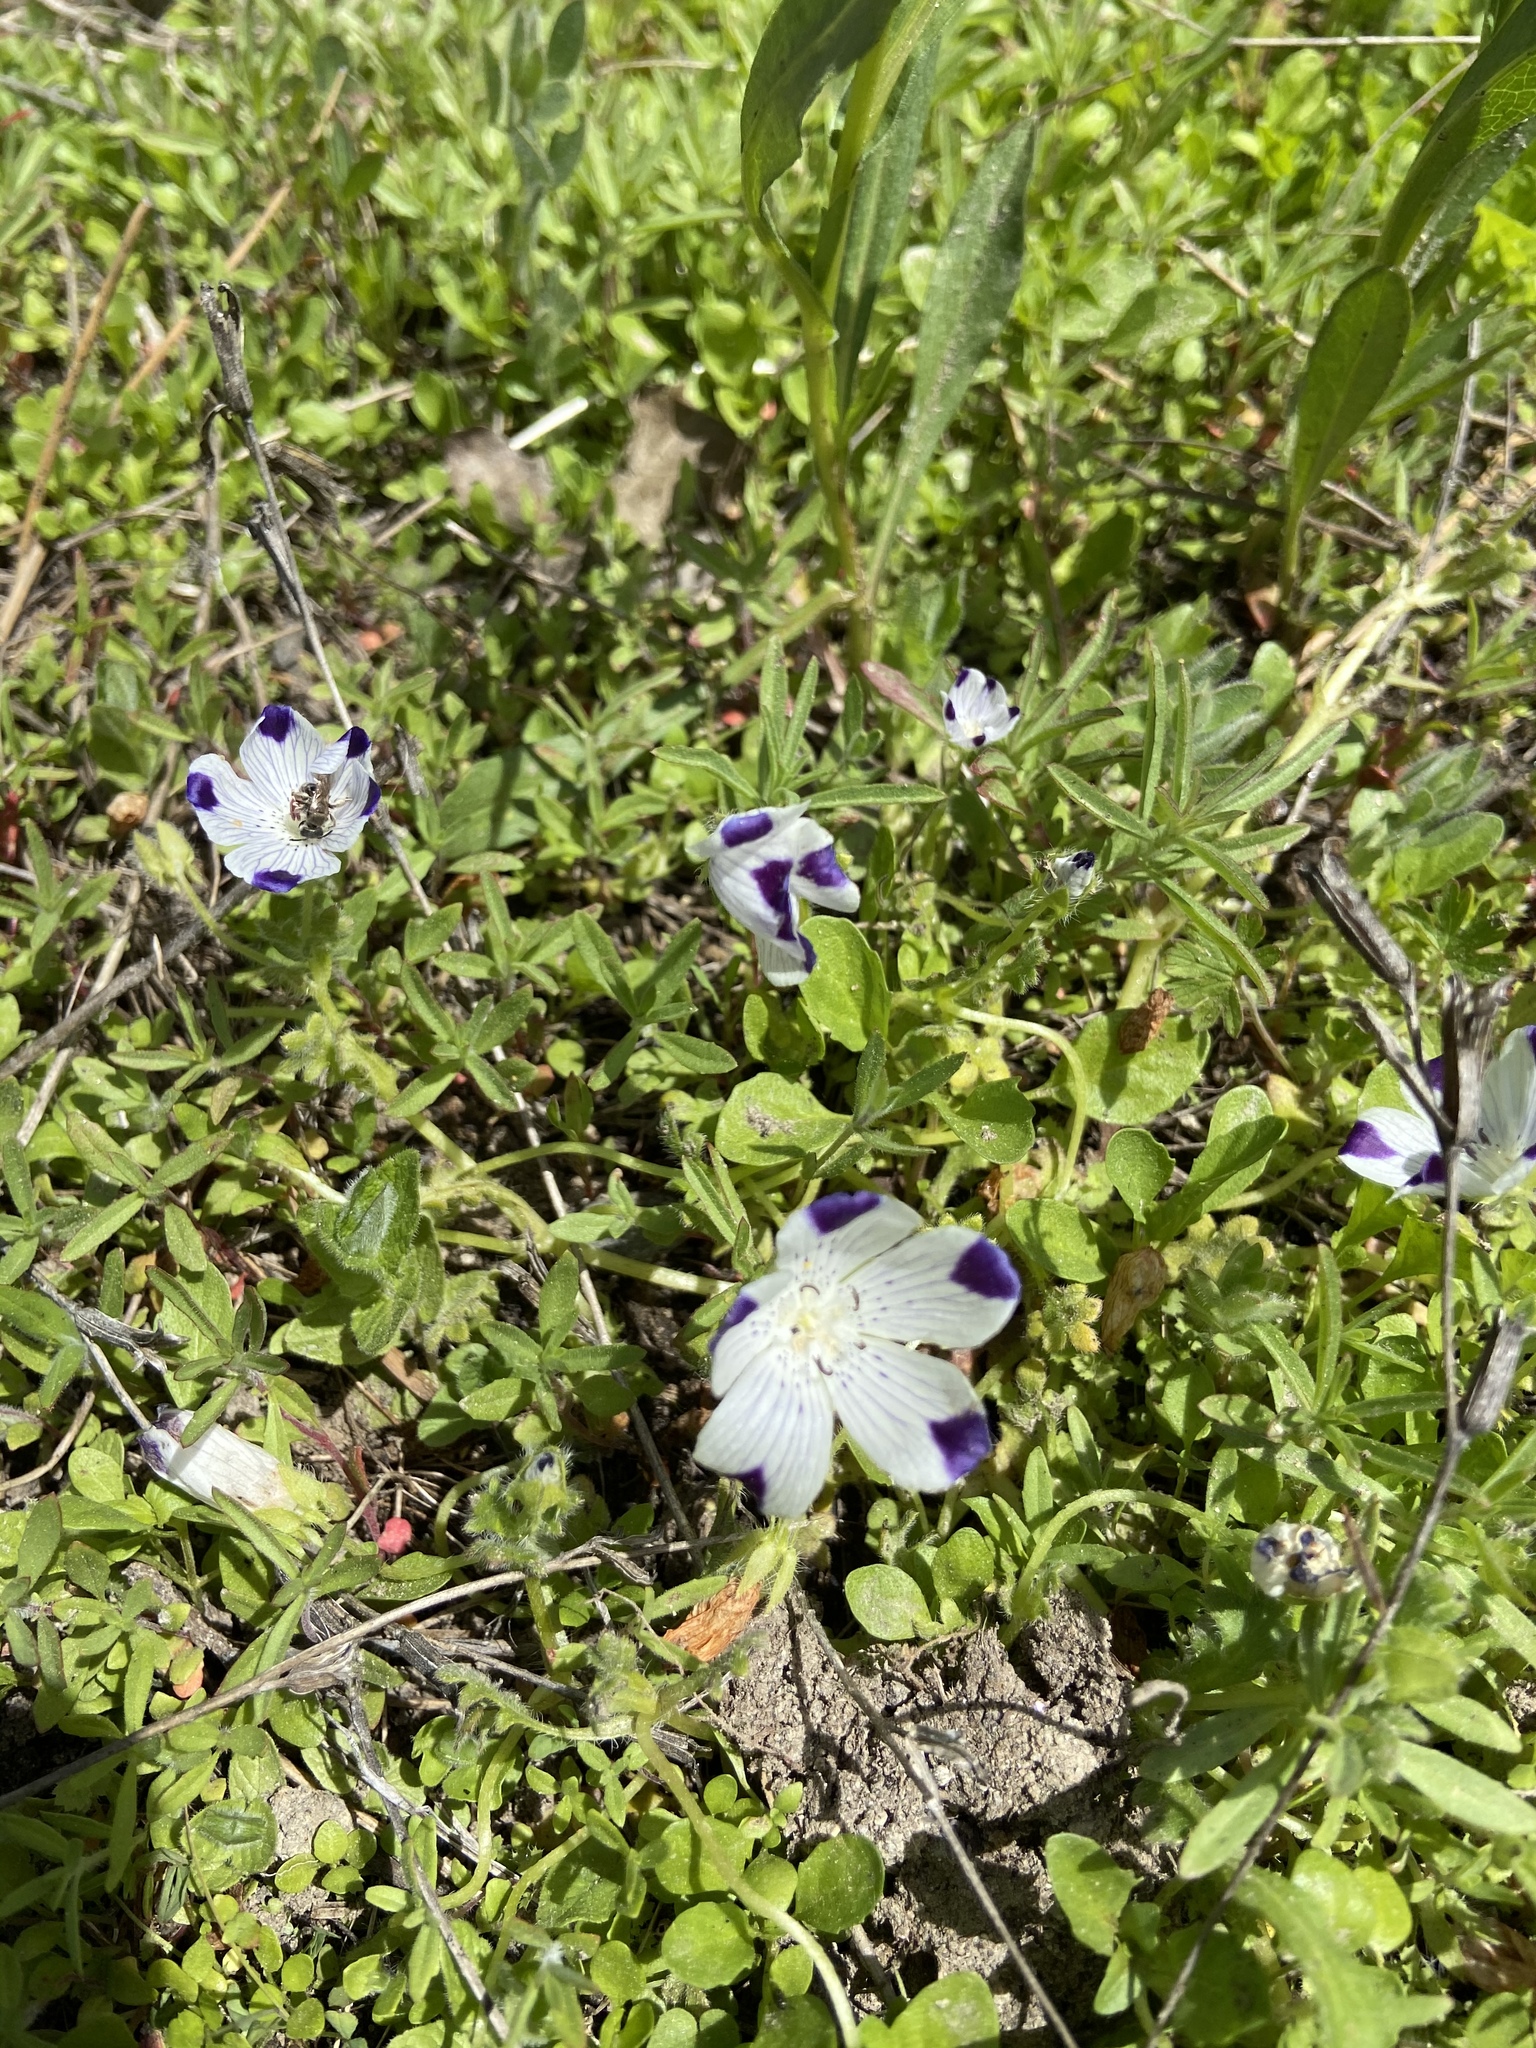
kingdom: Plantae
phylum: Tracheophyta
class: Magnoliopsida
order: Boraginales
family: Hydrophyllaceae
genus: Nemophila
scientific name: Nemophila maculata
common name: Fivespot
